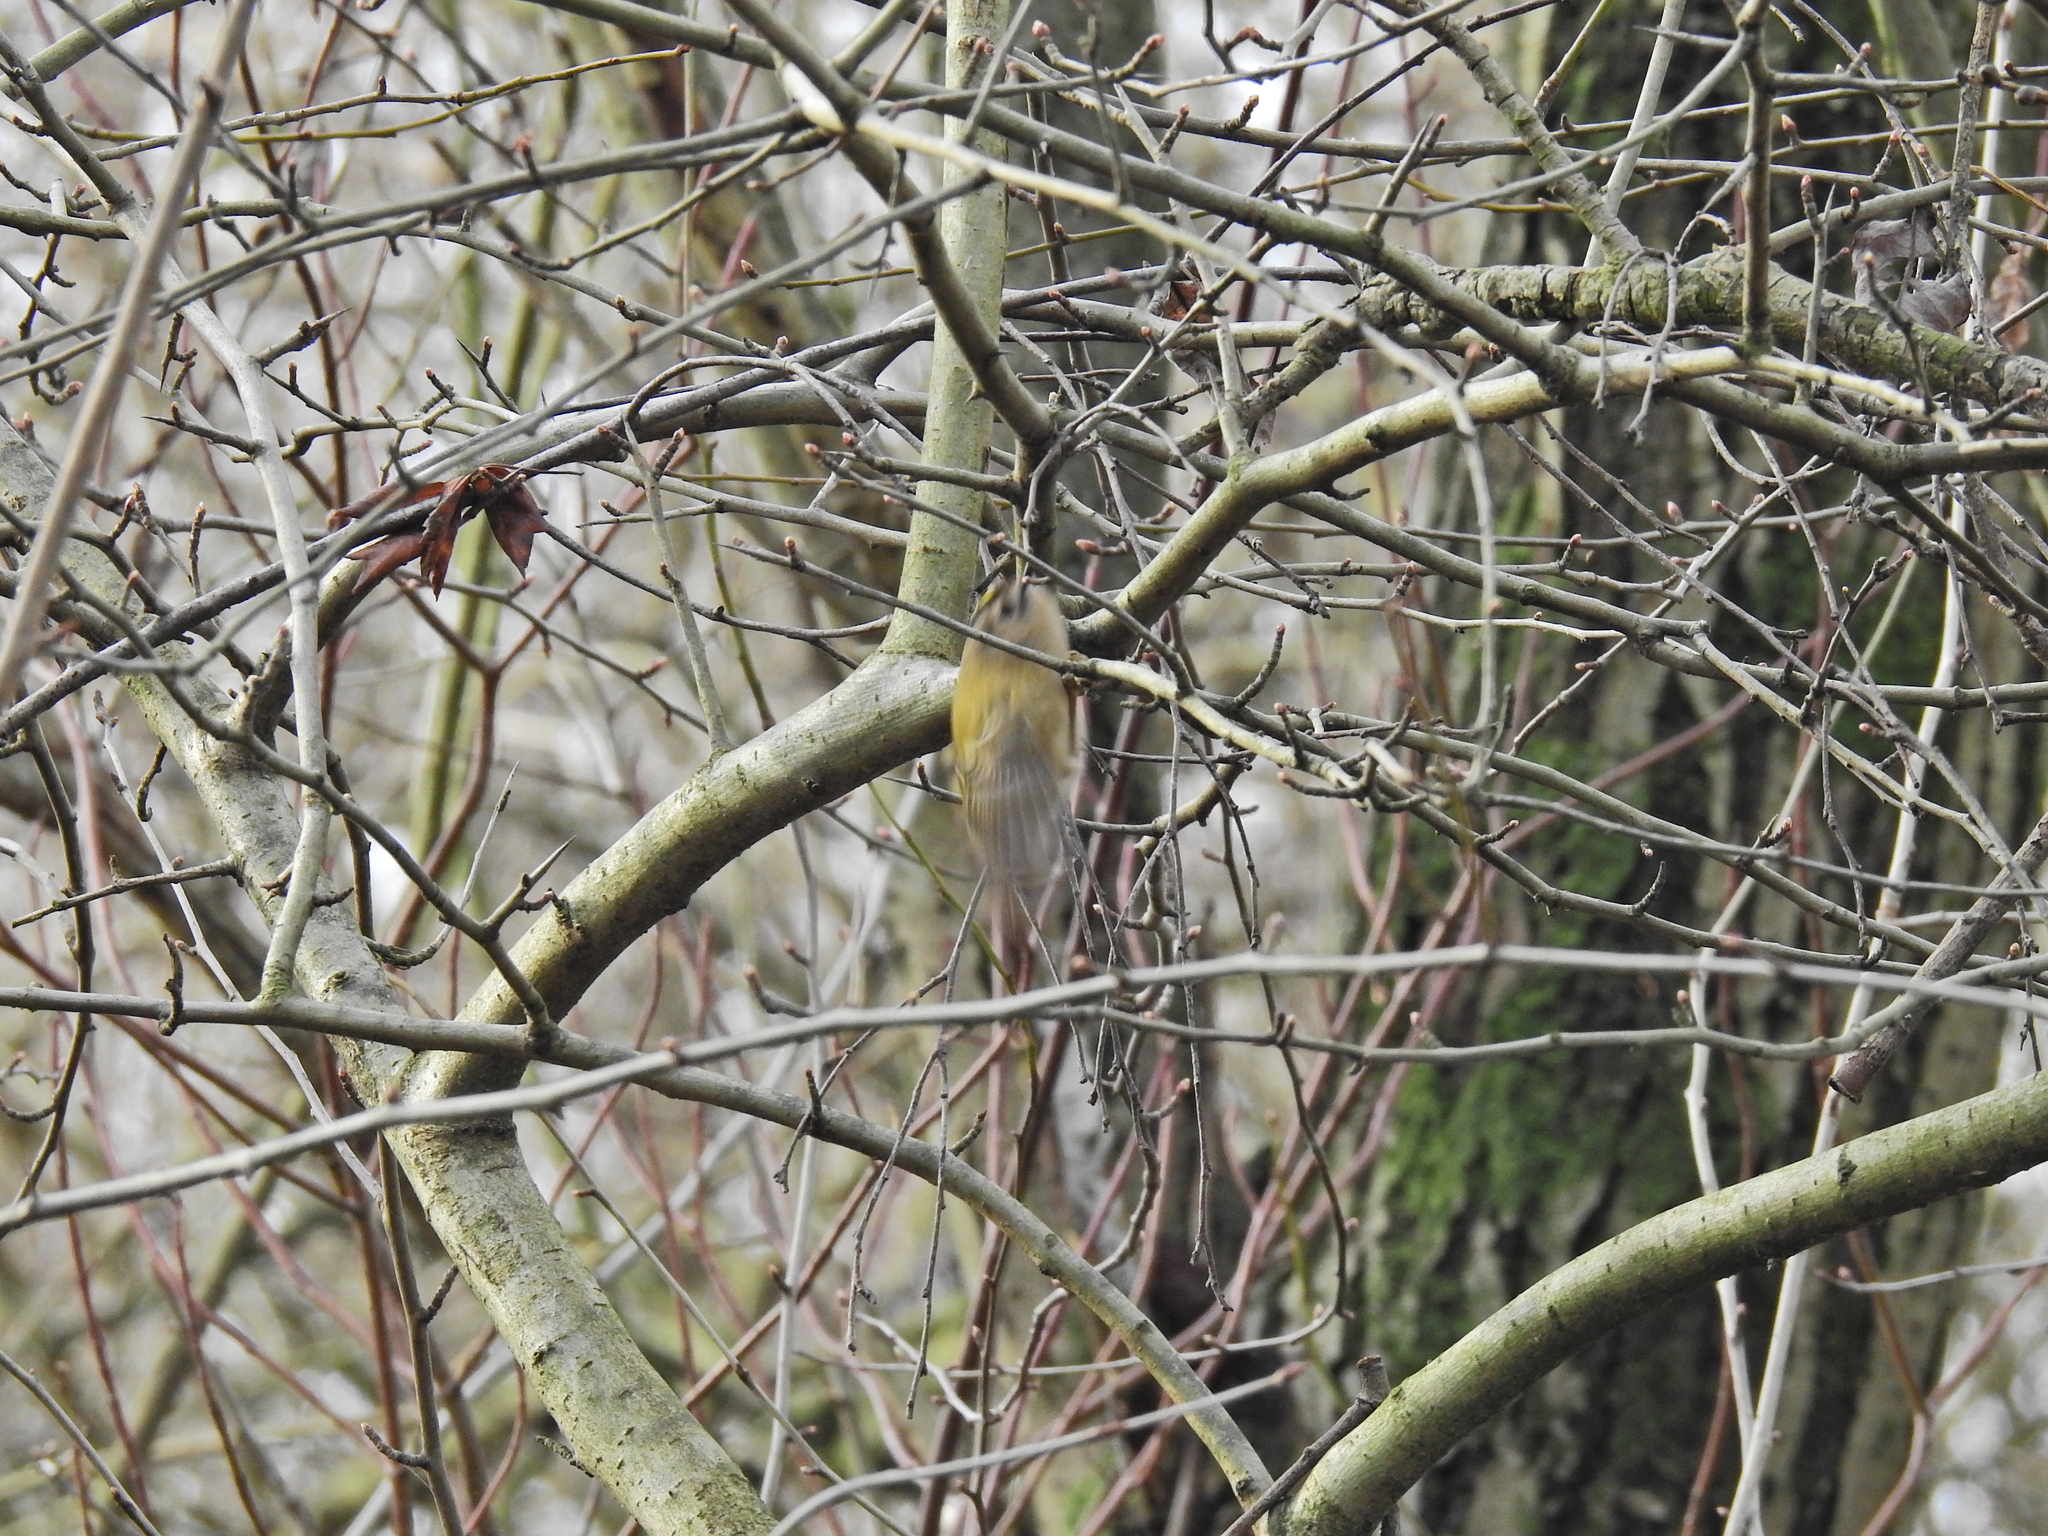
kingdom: Animalia
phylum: Chordata
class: Aves
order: Passeriformes
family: Regulidae
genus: Regulus
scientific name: Regulus regulus
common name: Goldcrest
